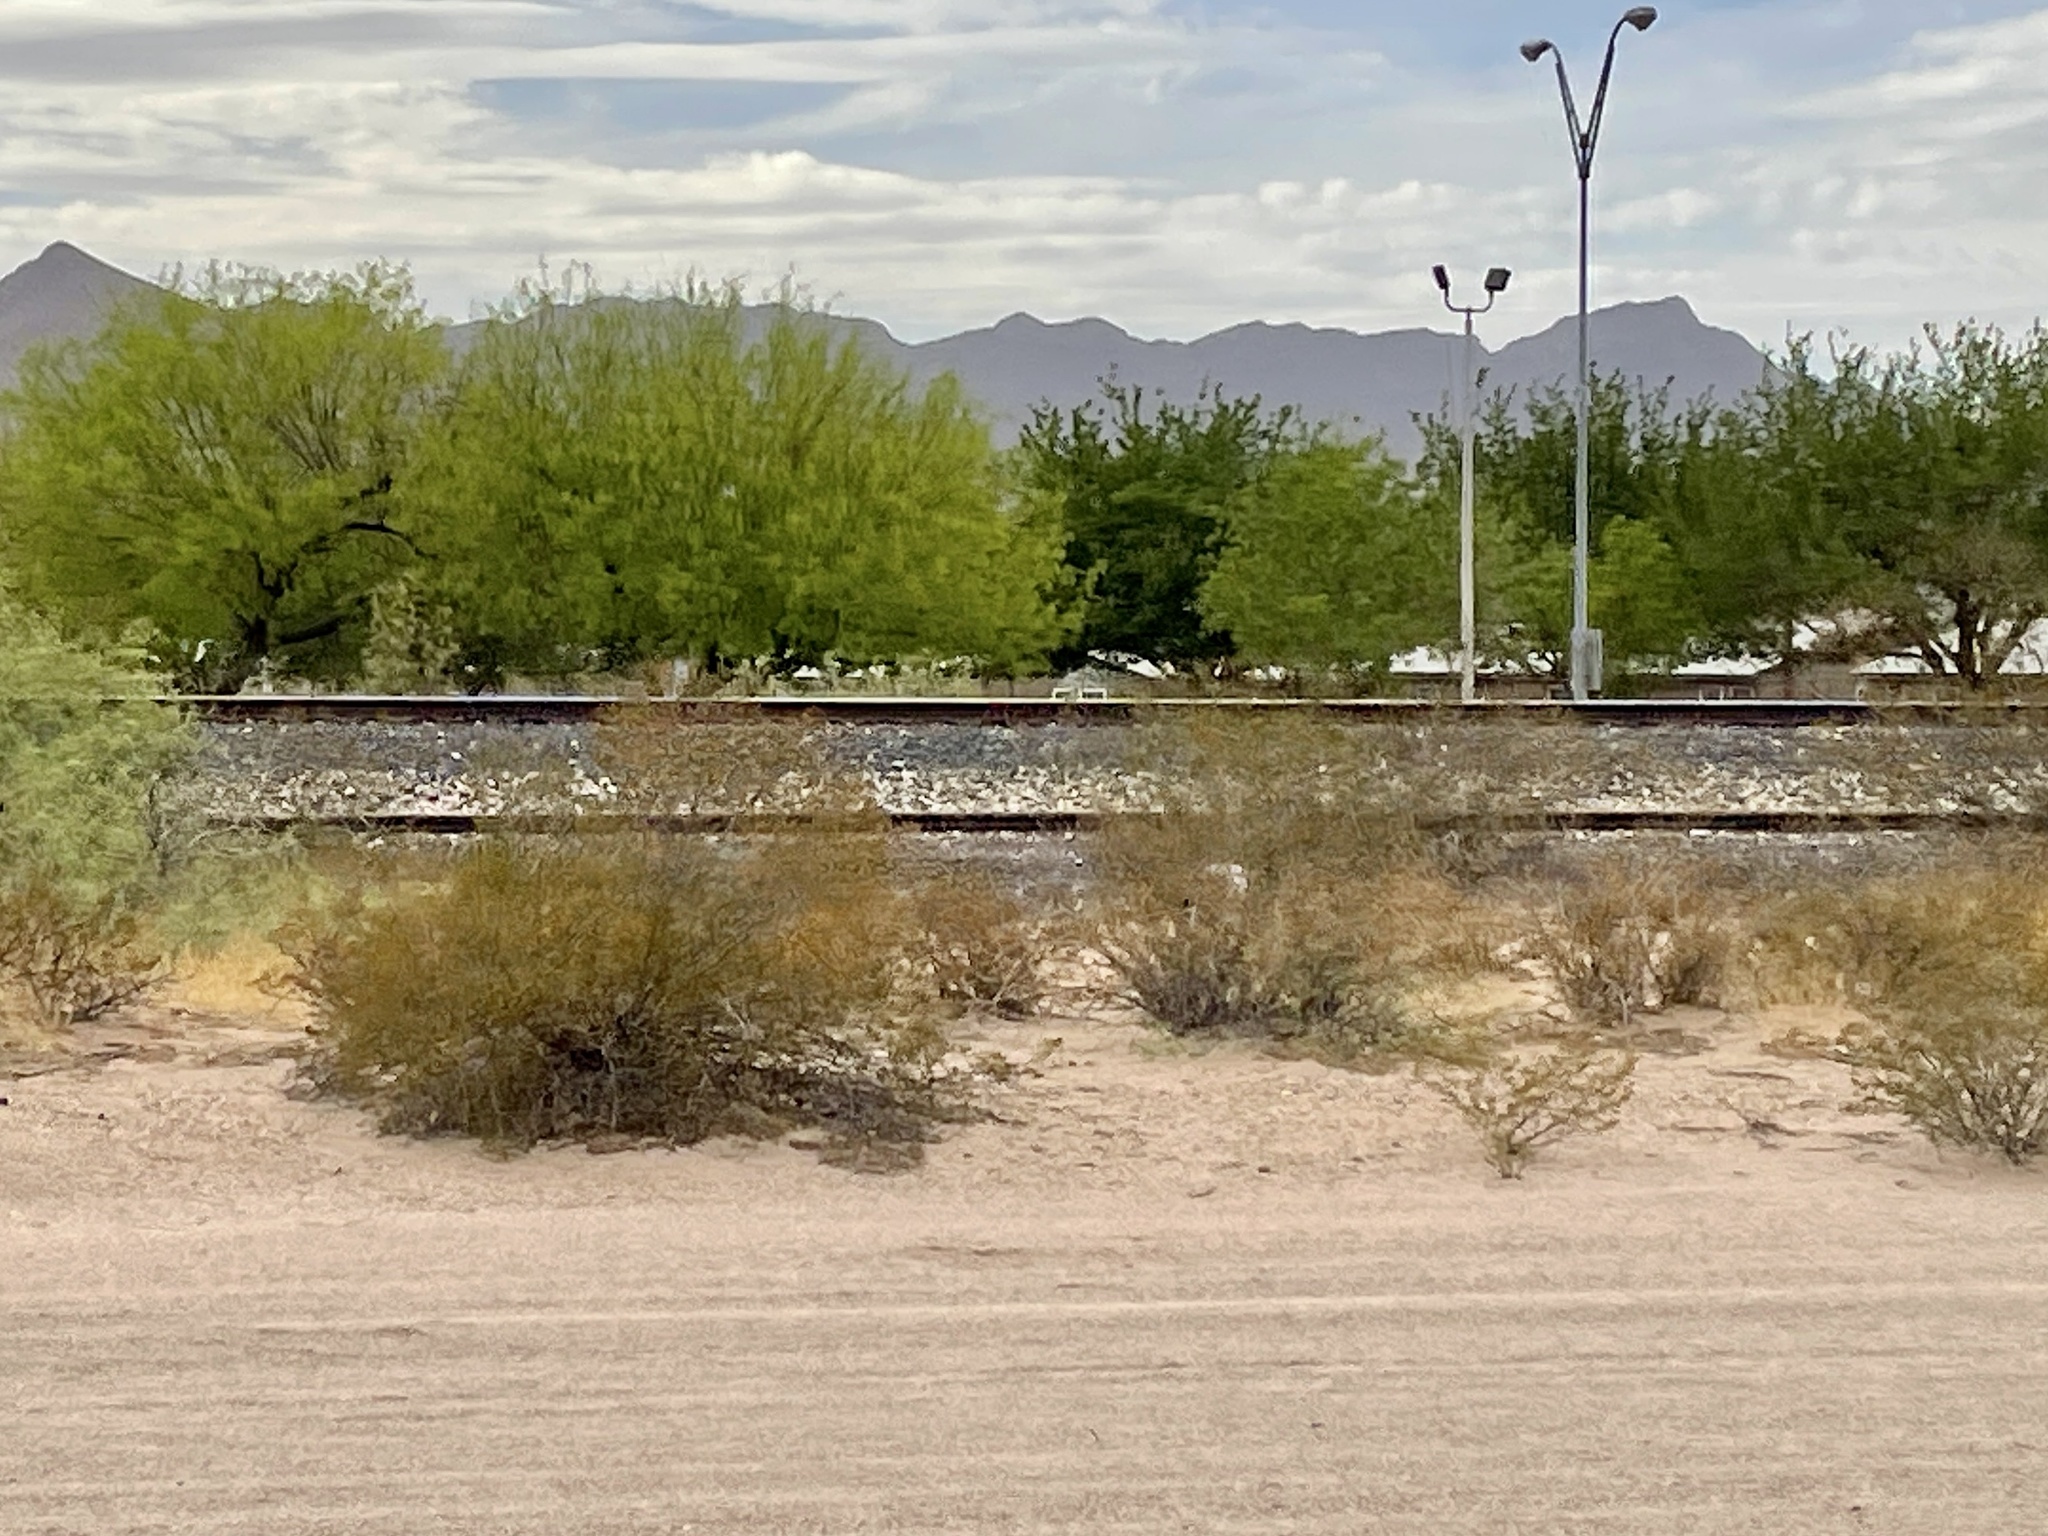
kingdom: Plantae
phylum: Tracheophyta
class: Magnoliopsida
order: Zygophyllales
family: Zygophyllaceae
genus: Larrea
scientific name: Larrea tridentata
